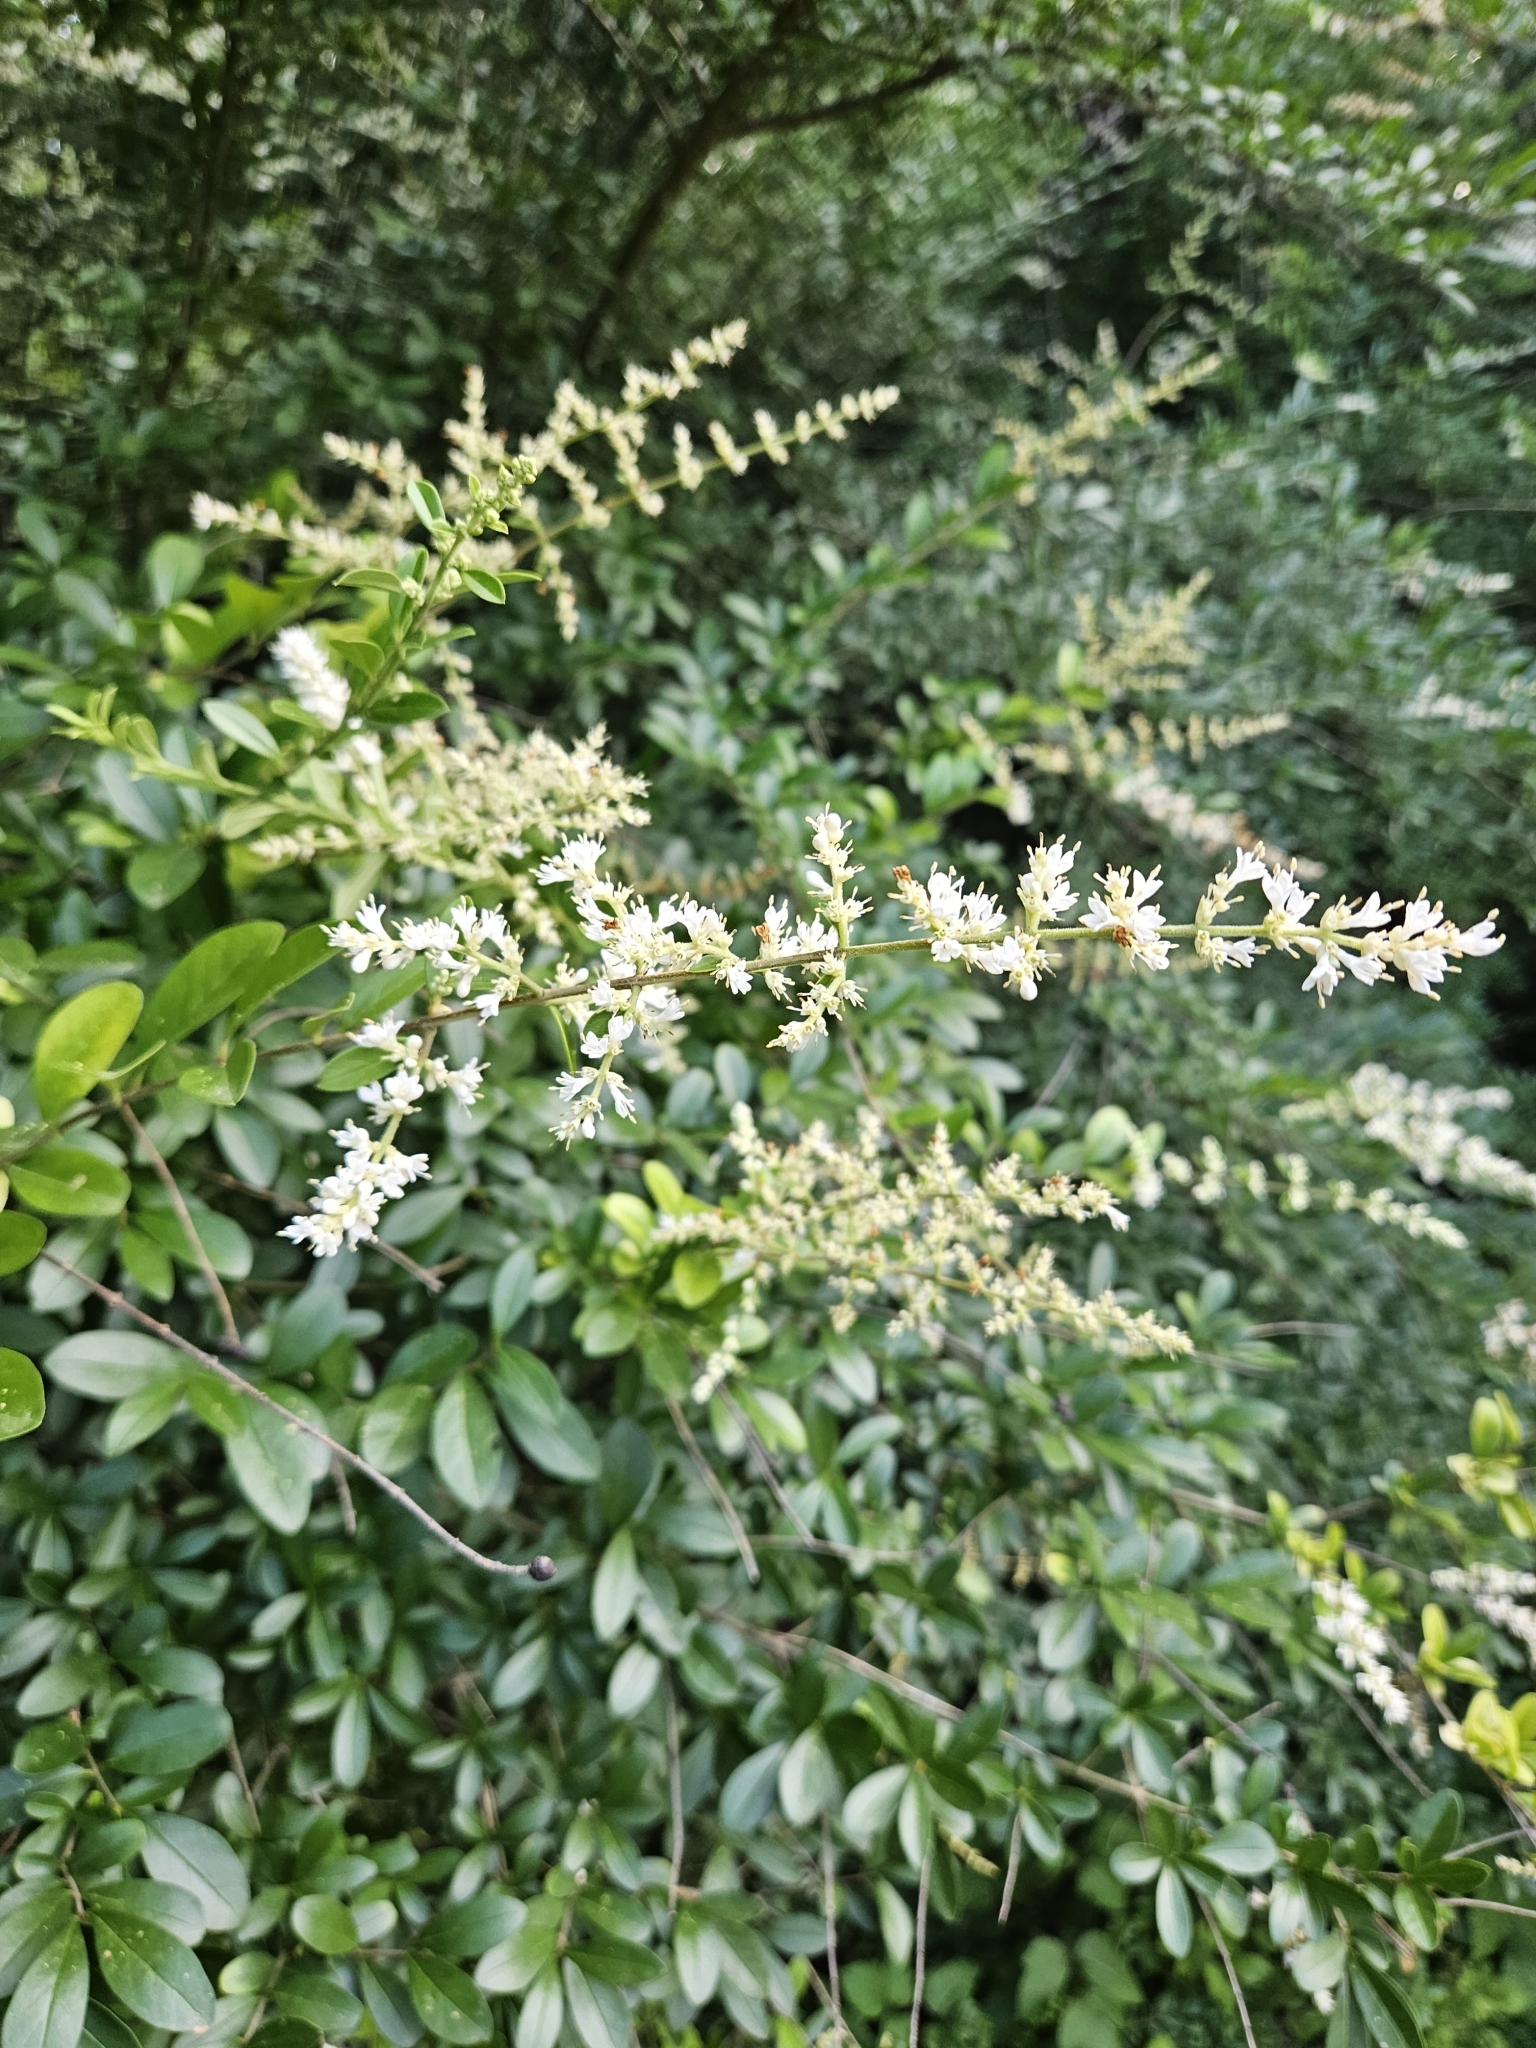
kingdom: Plantae
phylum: Tracheophyta
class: Magnoliopsida
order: Lamiales
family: Oleaceae
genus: Ligustrum
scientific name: Ligustrum quihoui
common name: Waxyleaf privet
